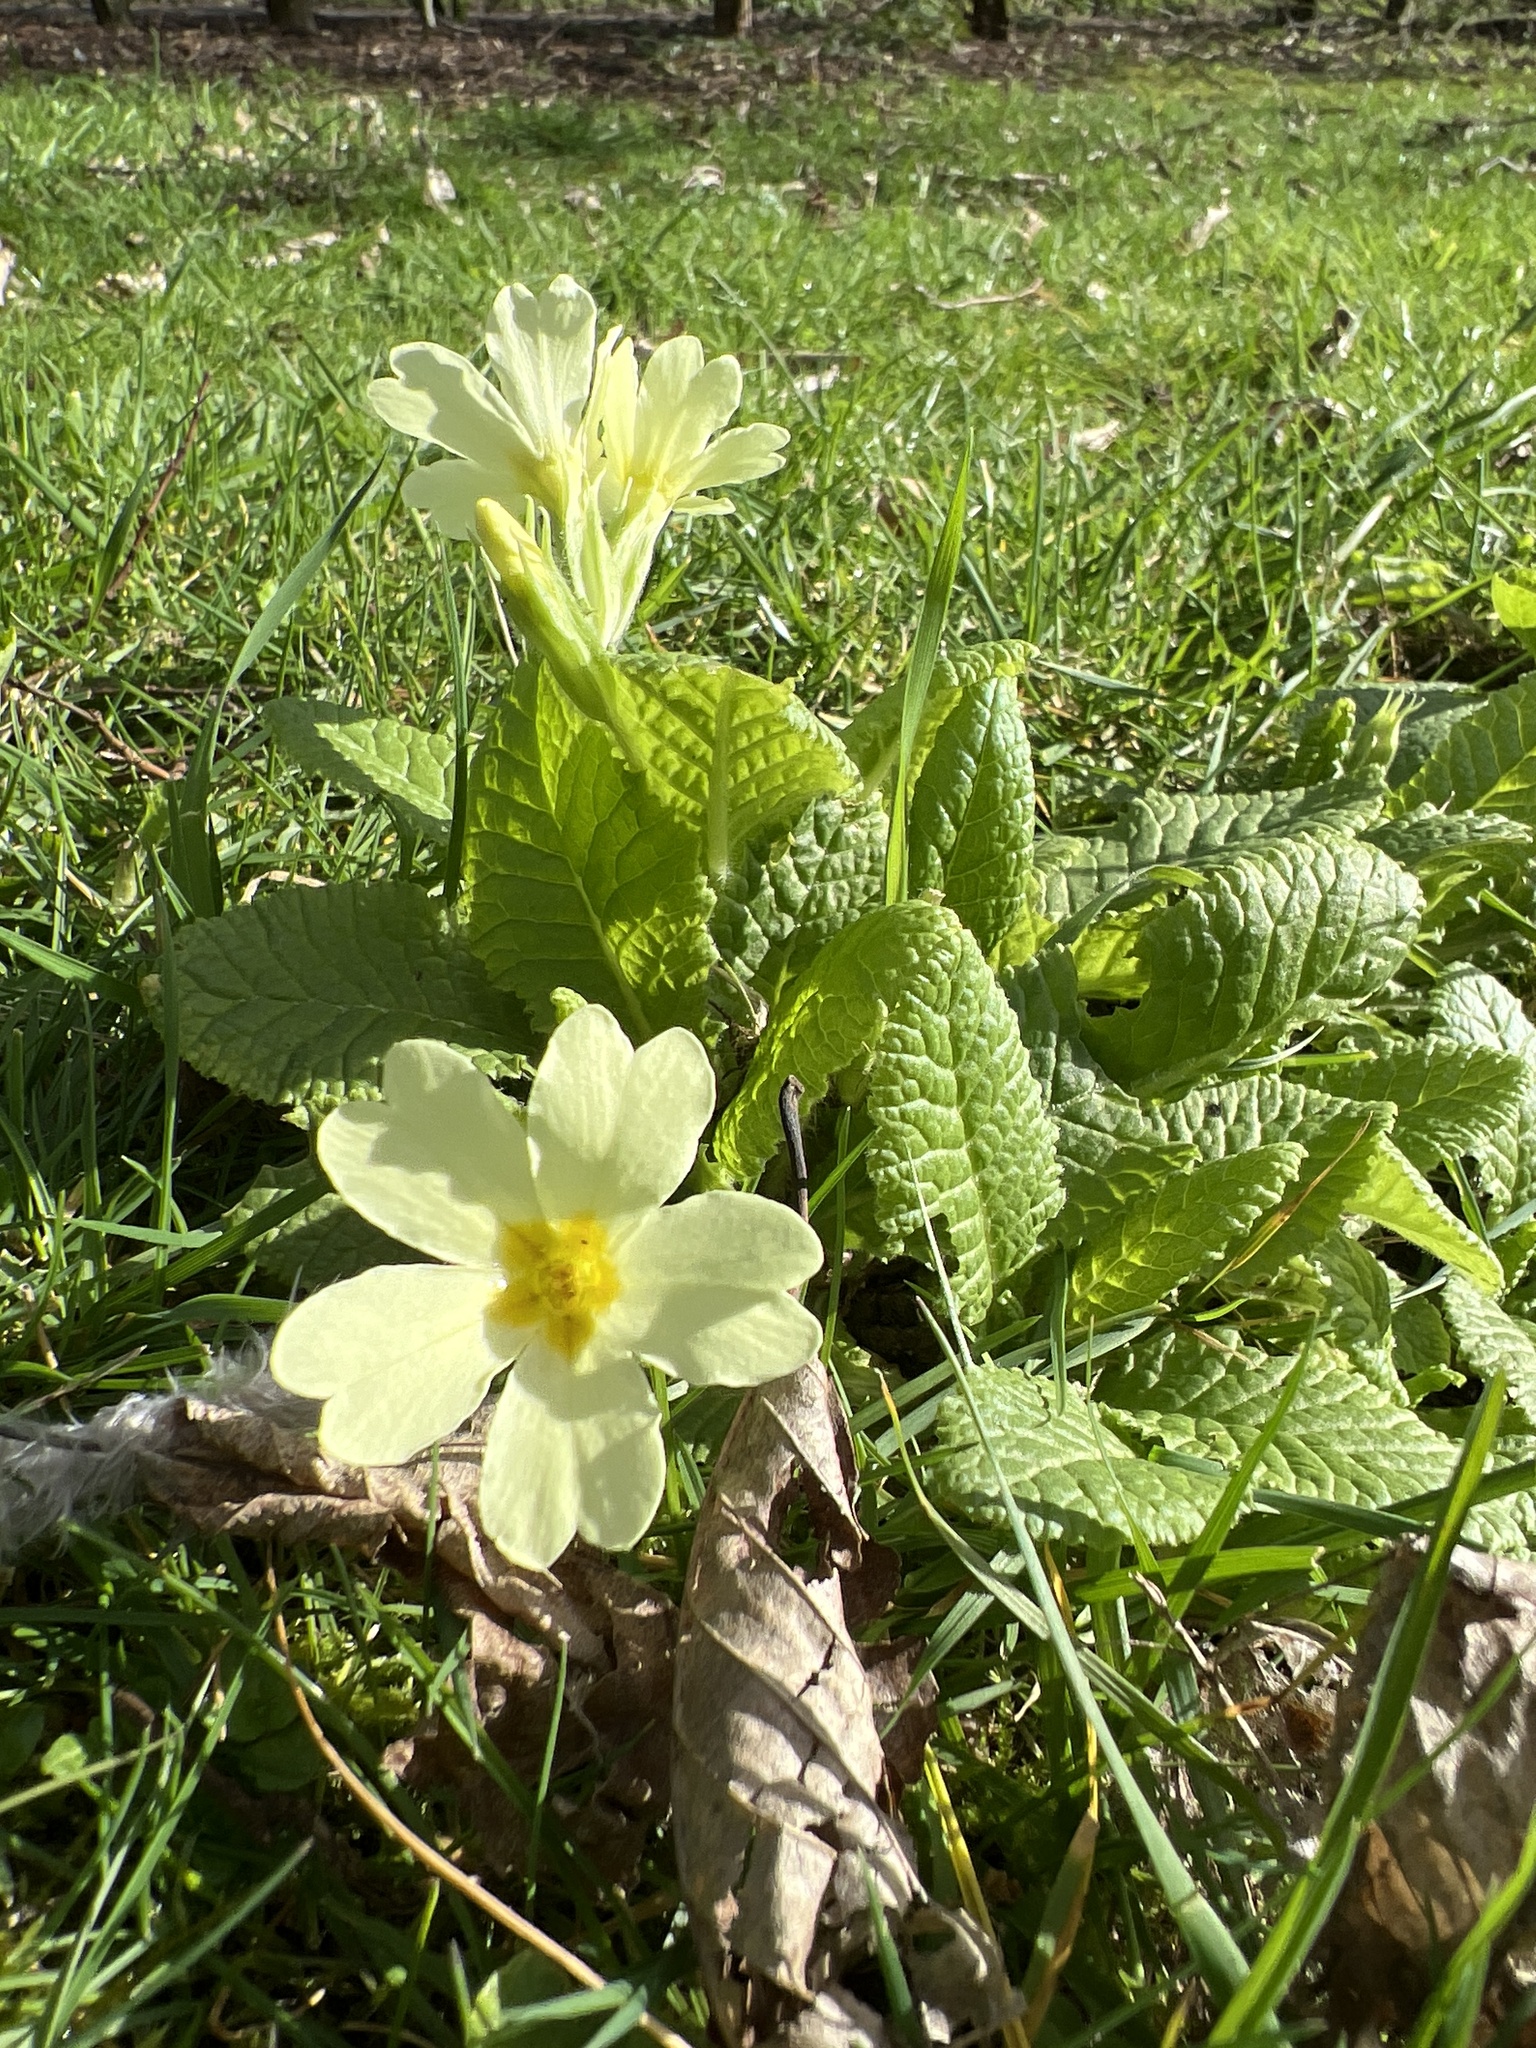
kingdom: Plantae
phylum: Tracheophyta
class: Magnoliopsida
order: Ericales
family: Primulaceae
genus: Primula
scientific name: Primula vulgaris
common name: Primrose
